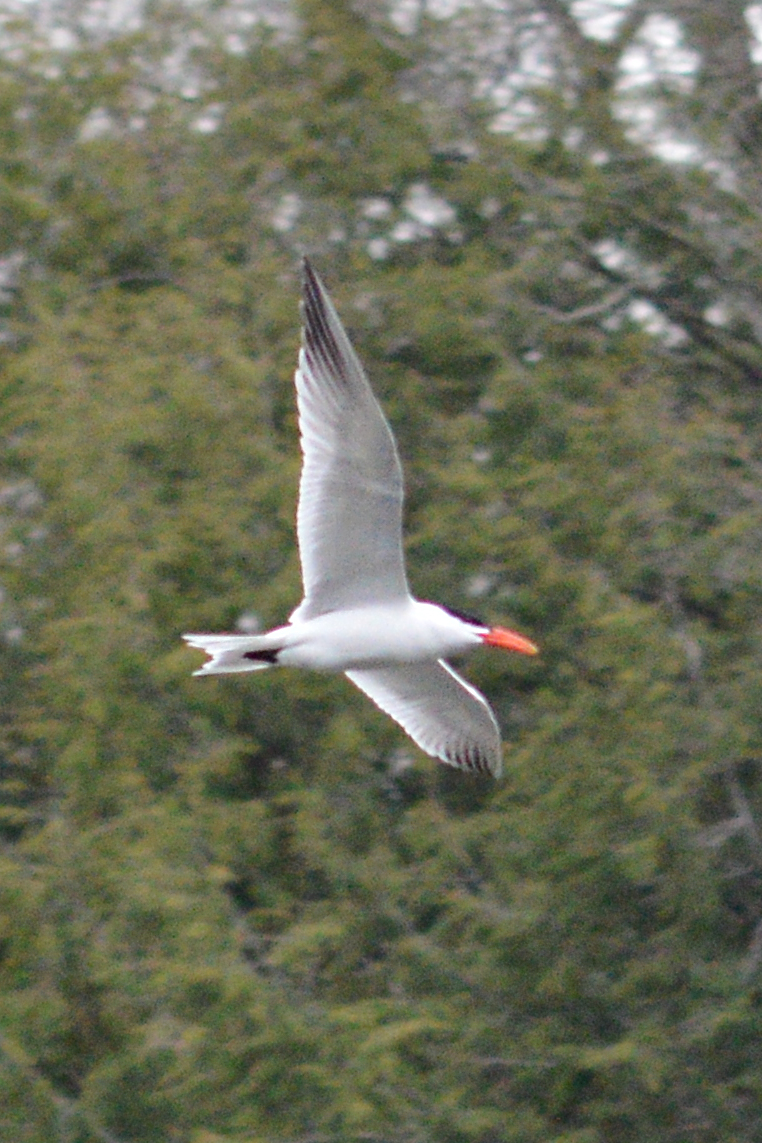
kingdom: Animalia
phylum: Chordata
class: Aves
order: Charadriiformes
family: Laridae
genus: Hydroprogne
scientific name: Hydroprogne caspia
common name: Caspian tern
